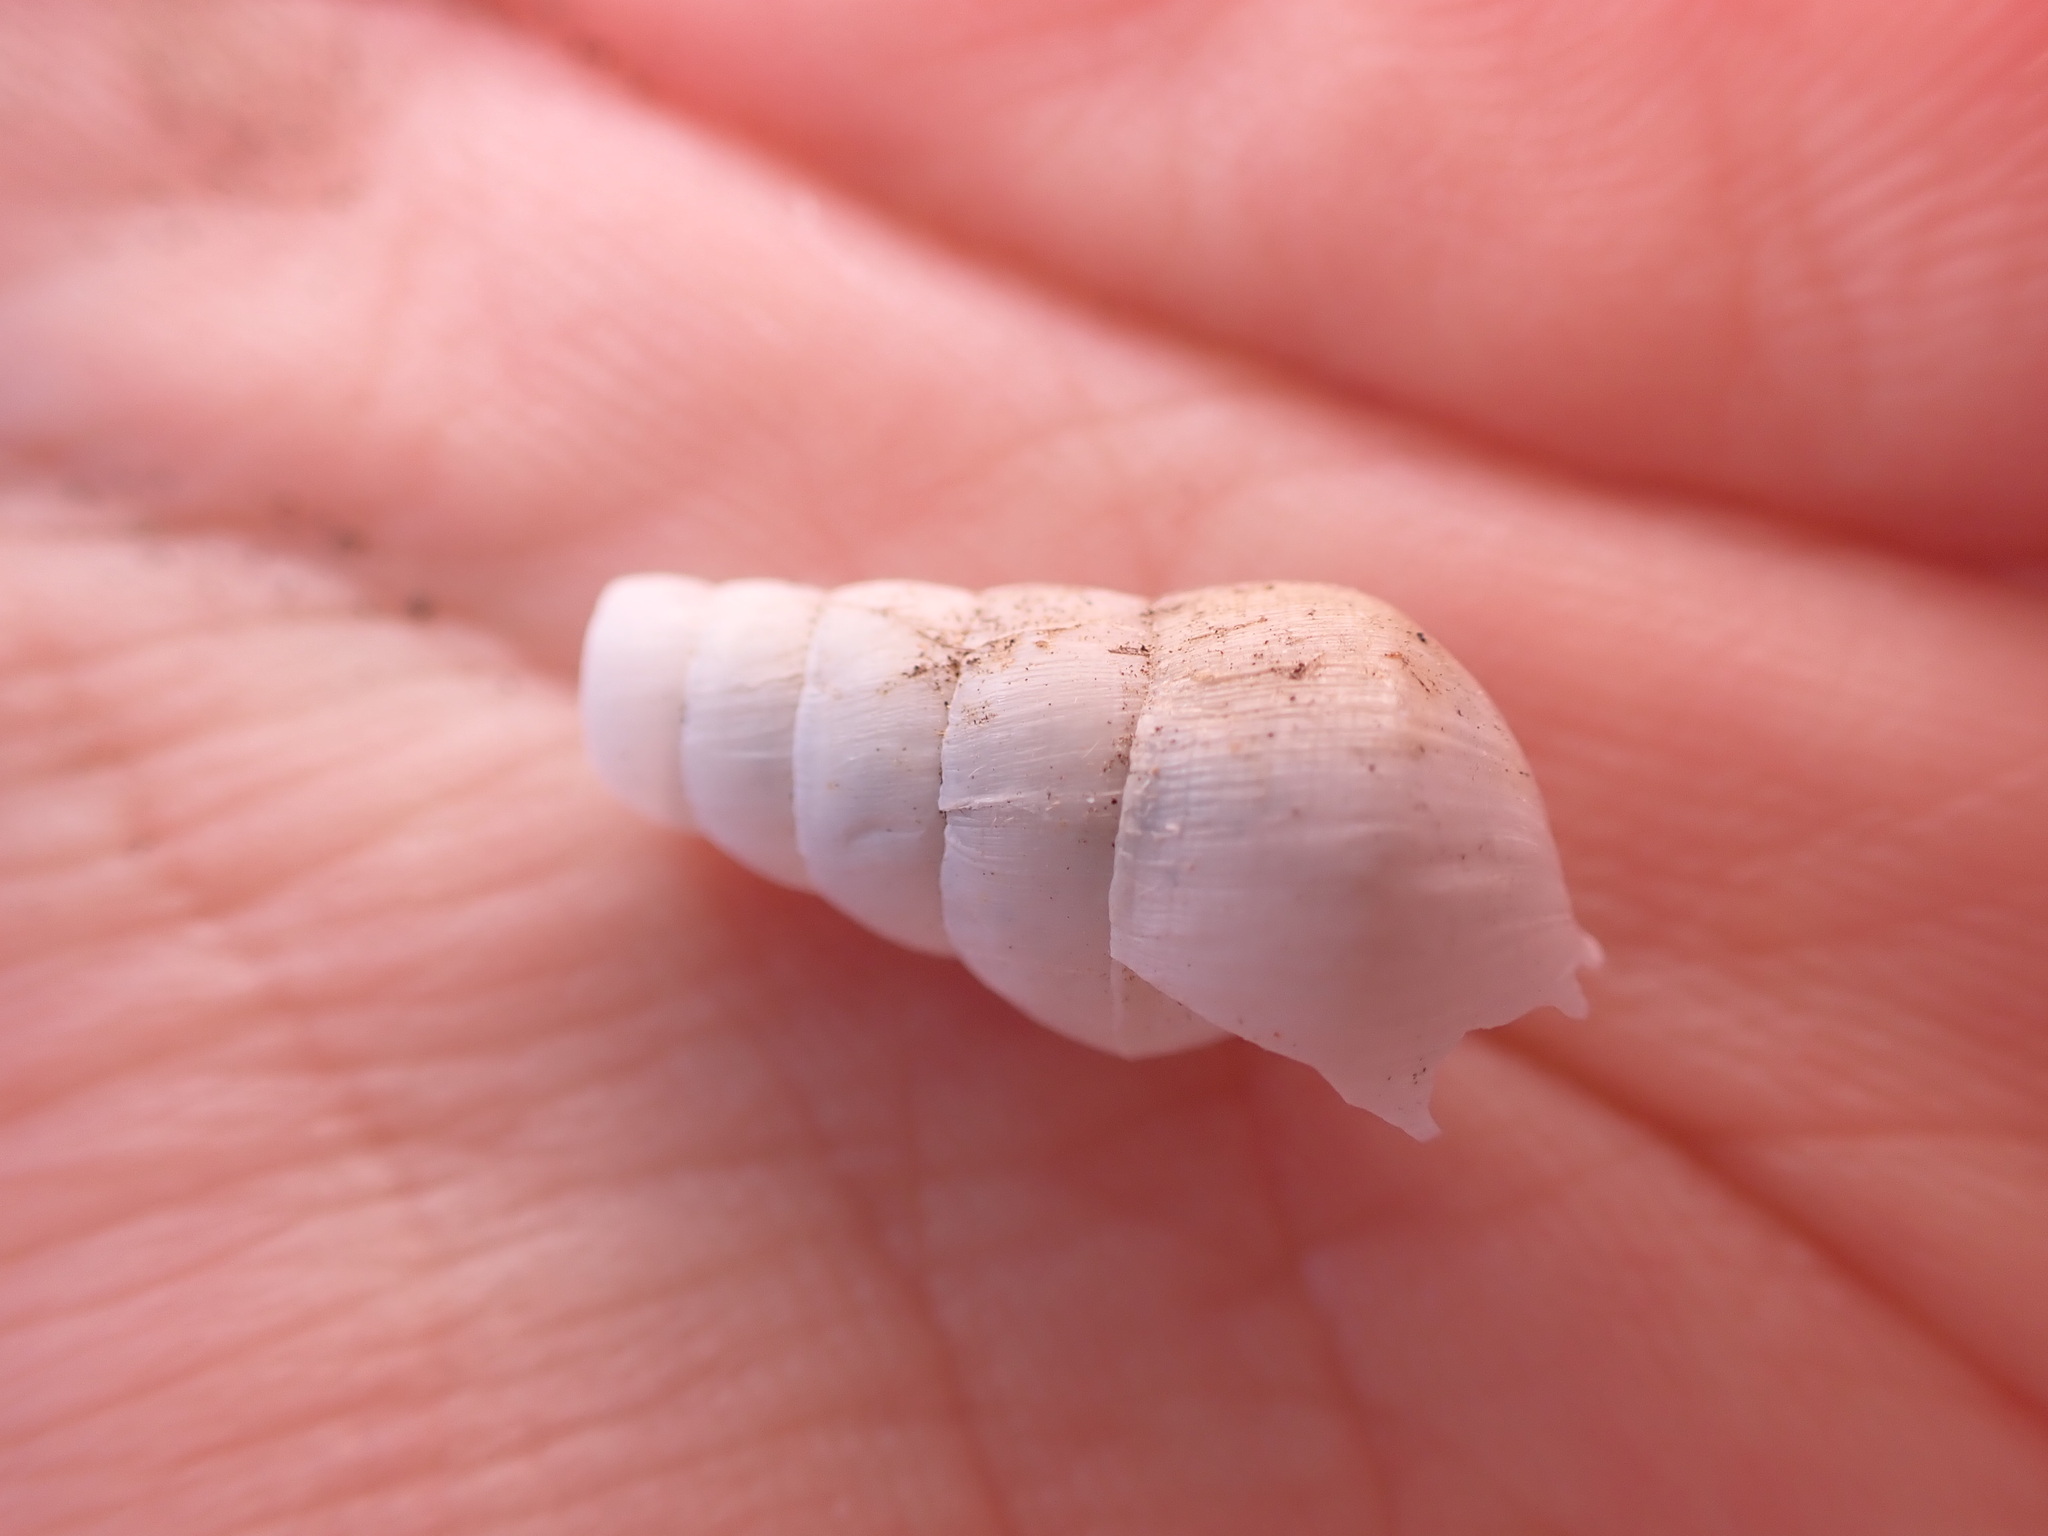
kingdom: Animalia
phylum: Mollusca
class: Gastropoda
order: Stylommatophora
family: Achatinidae
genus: Rumina
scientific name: Rumina decollata
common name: Decollate snail
